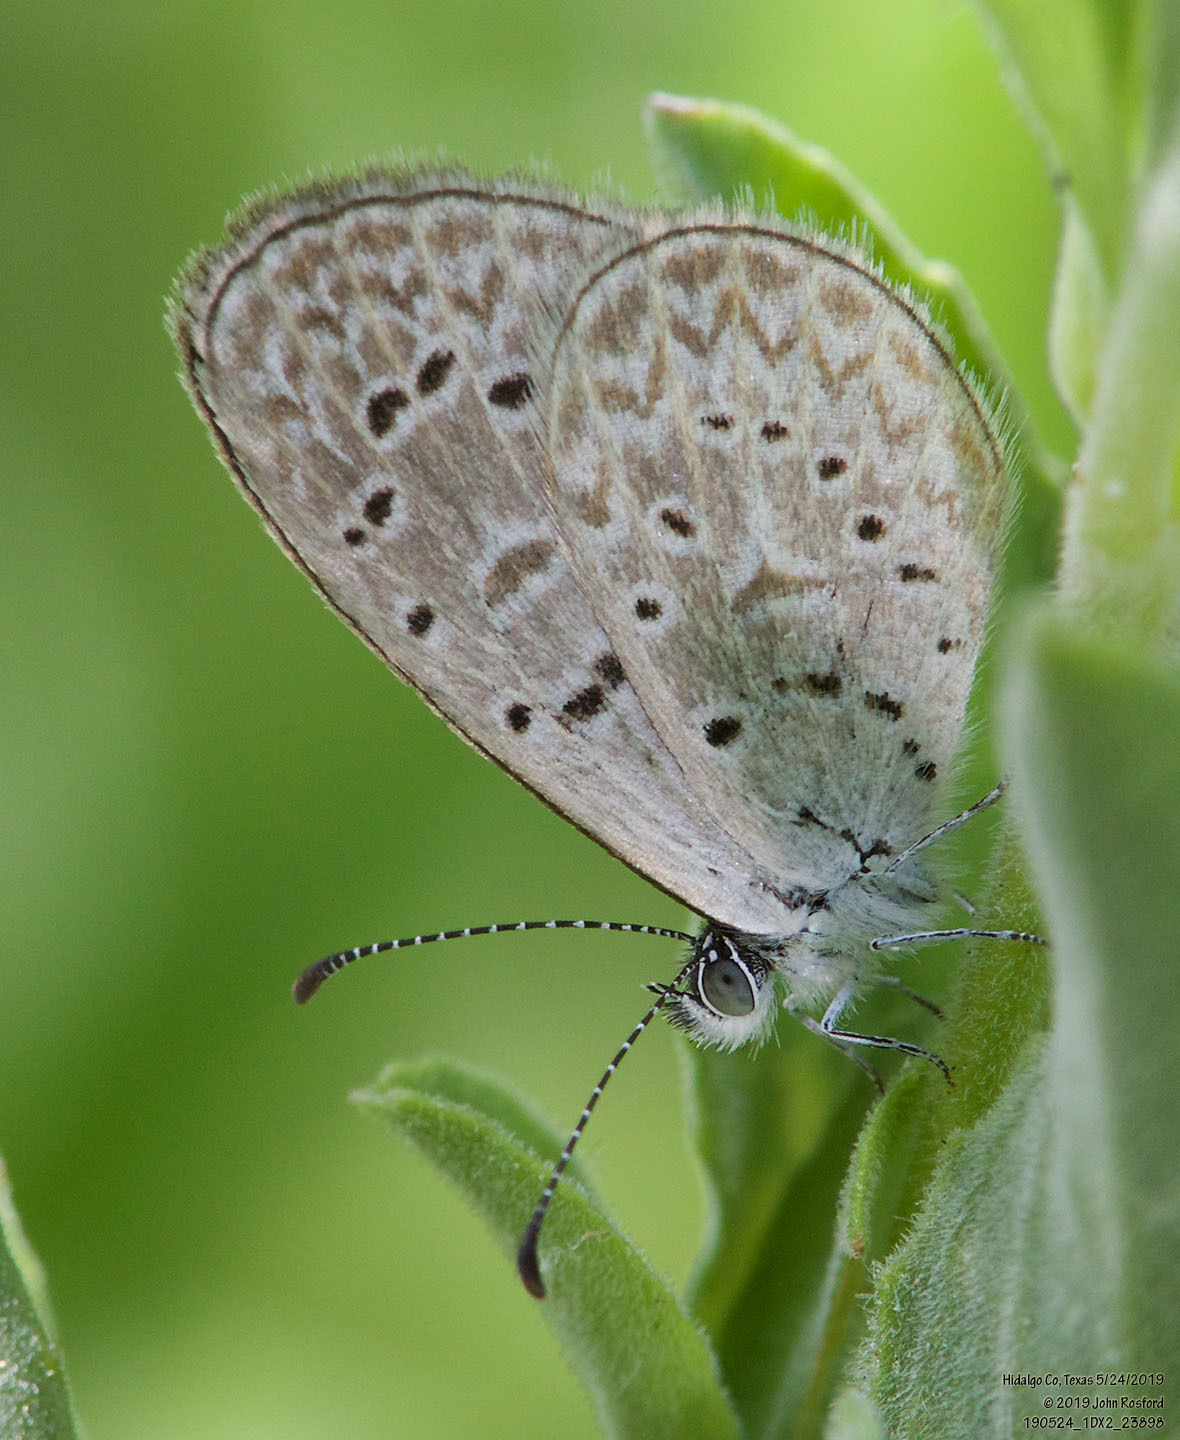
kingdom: Animalia
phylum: Arthropoda
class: Insecta
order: Lepidoptera
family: Lycaenidae
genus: Lycaena
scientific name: Lycaena cyna
